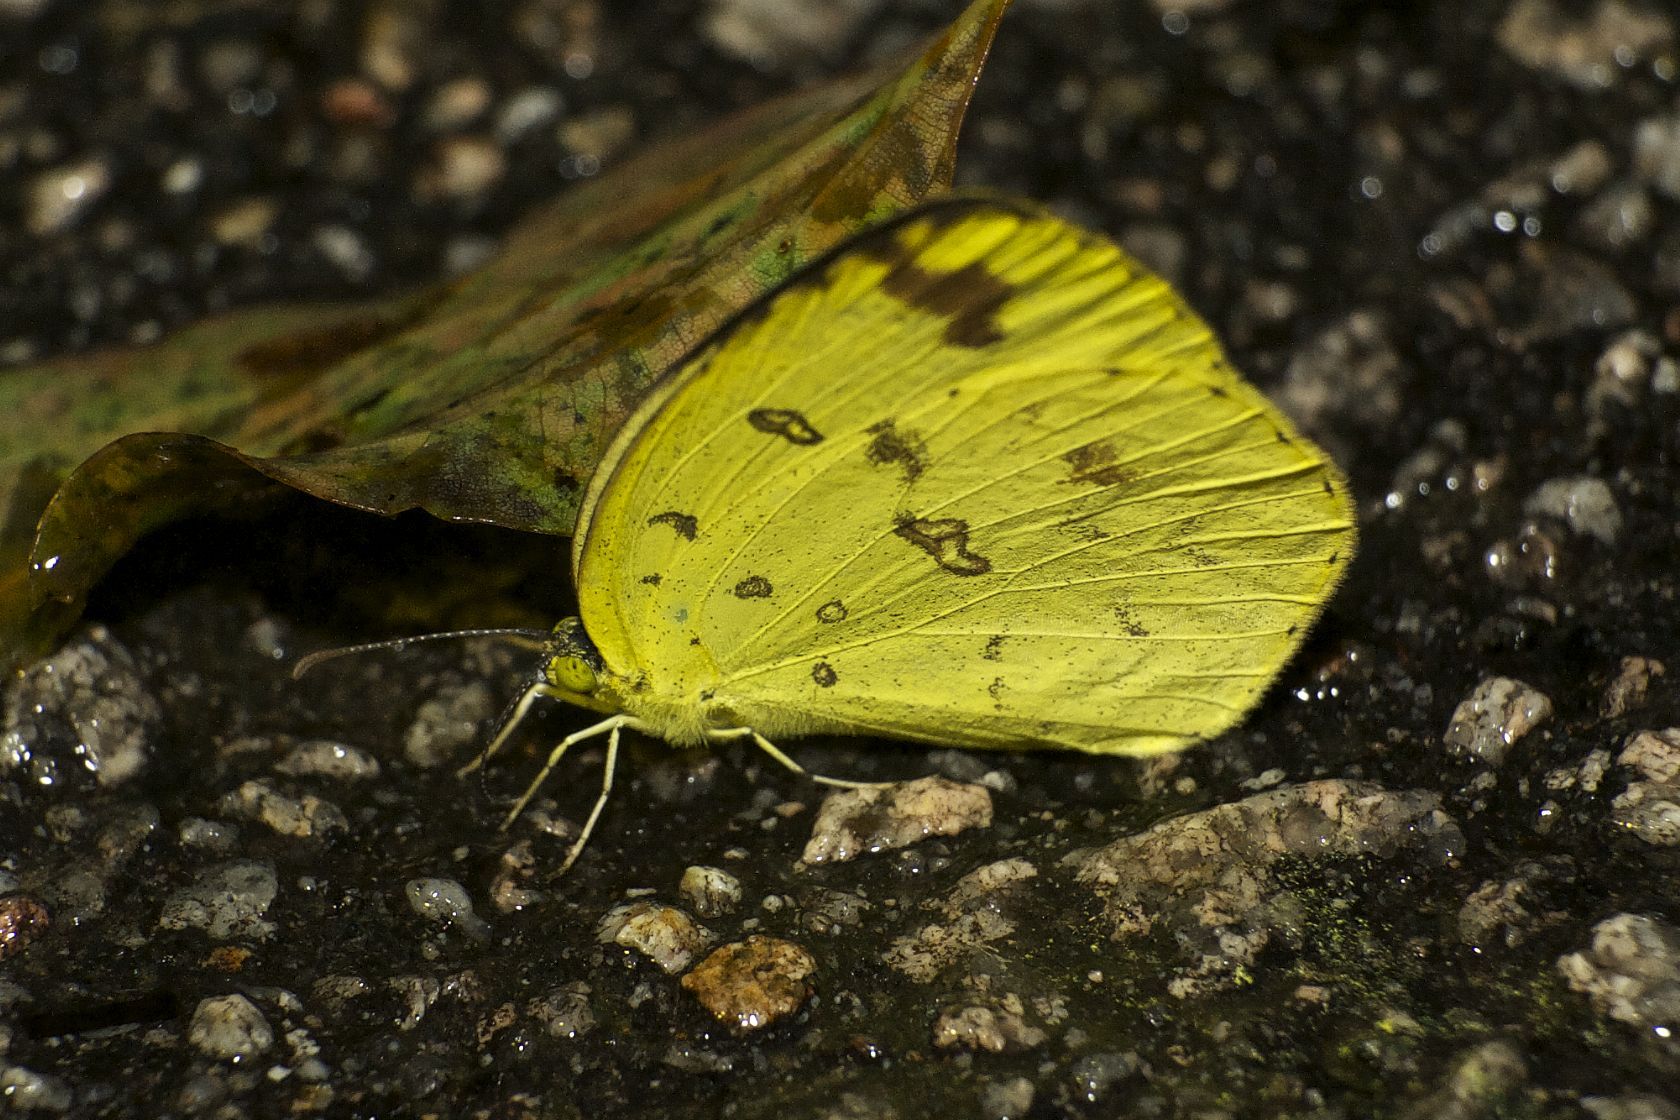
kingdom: Animalia
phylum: Arthropoda
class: Insecta
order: Lepidoptera
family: Pieridae
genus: Eurema
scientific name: Eurema blanda
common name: Three-spot grass yellow
